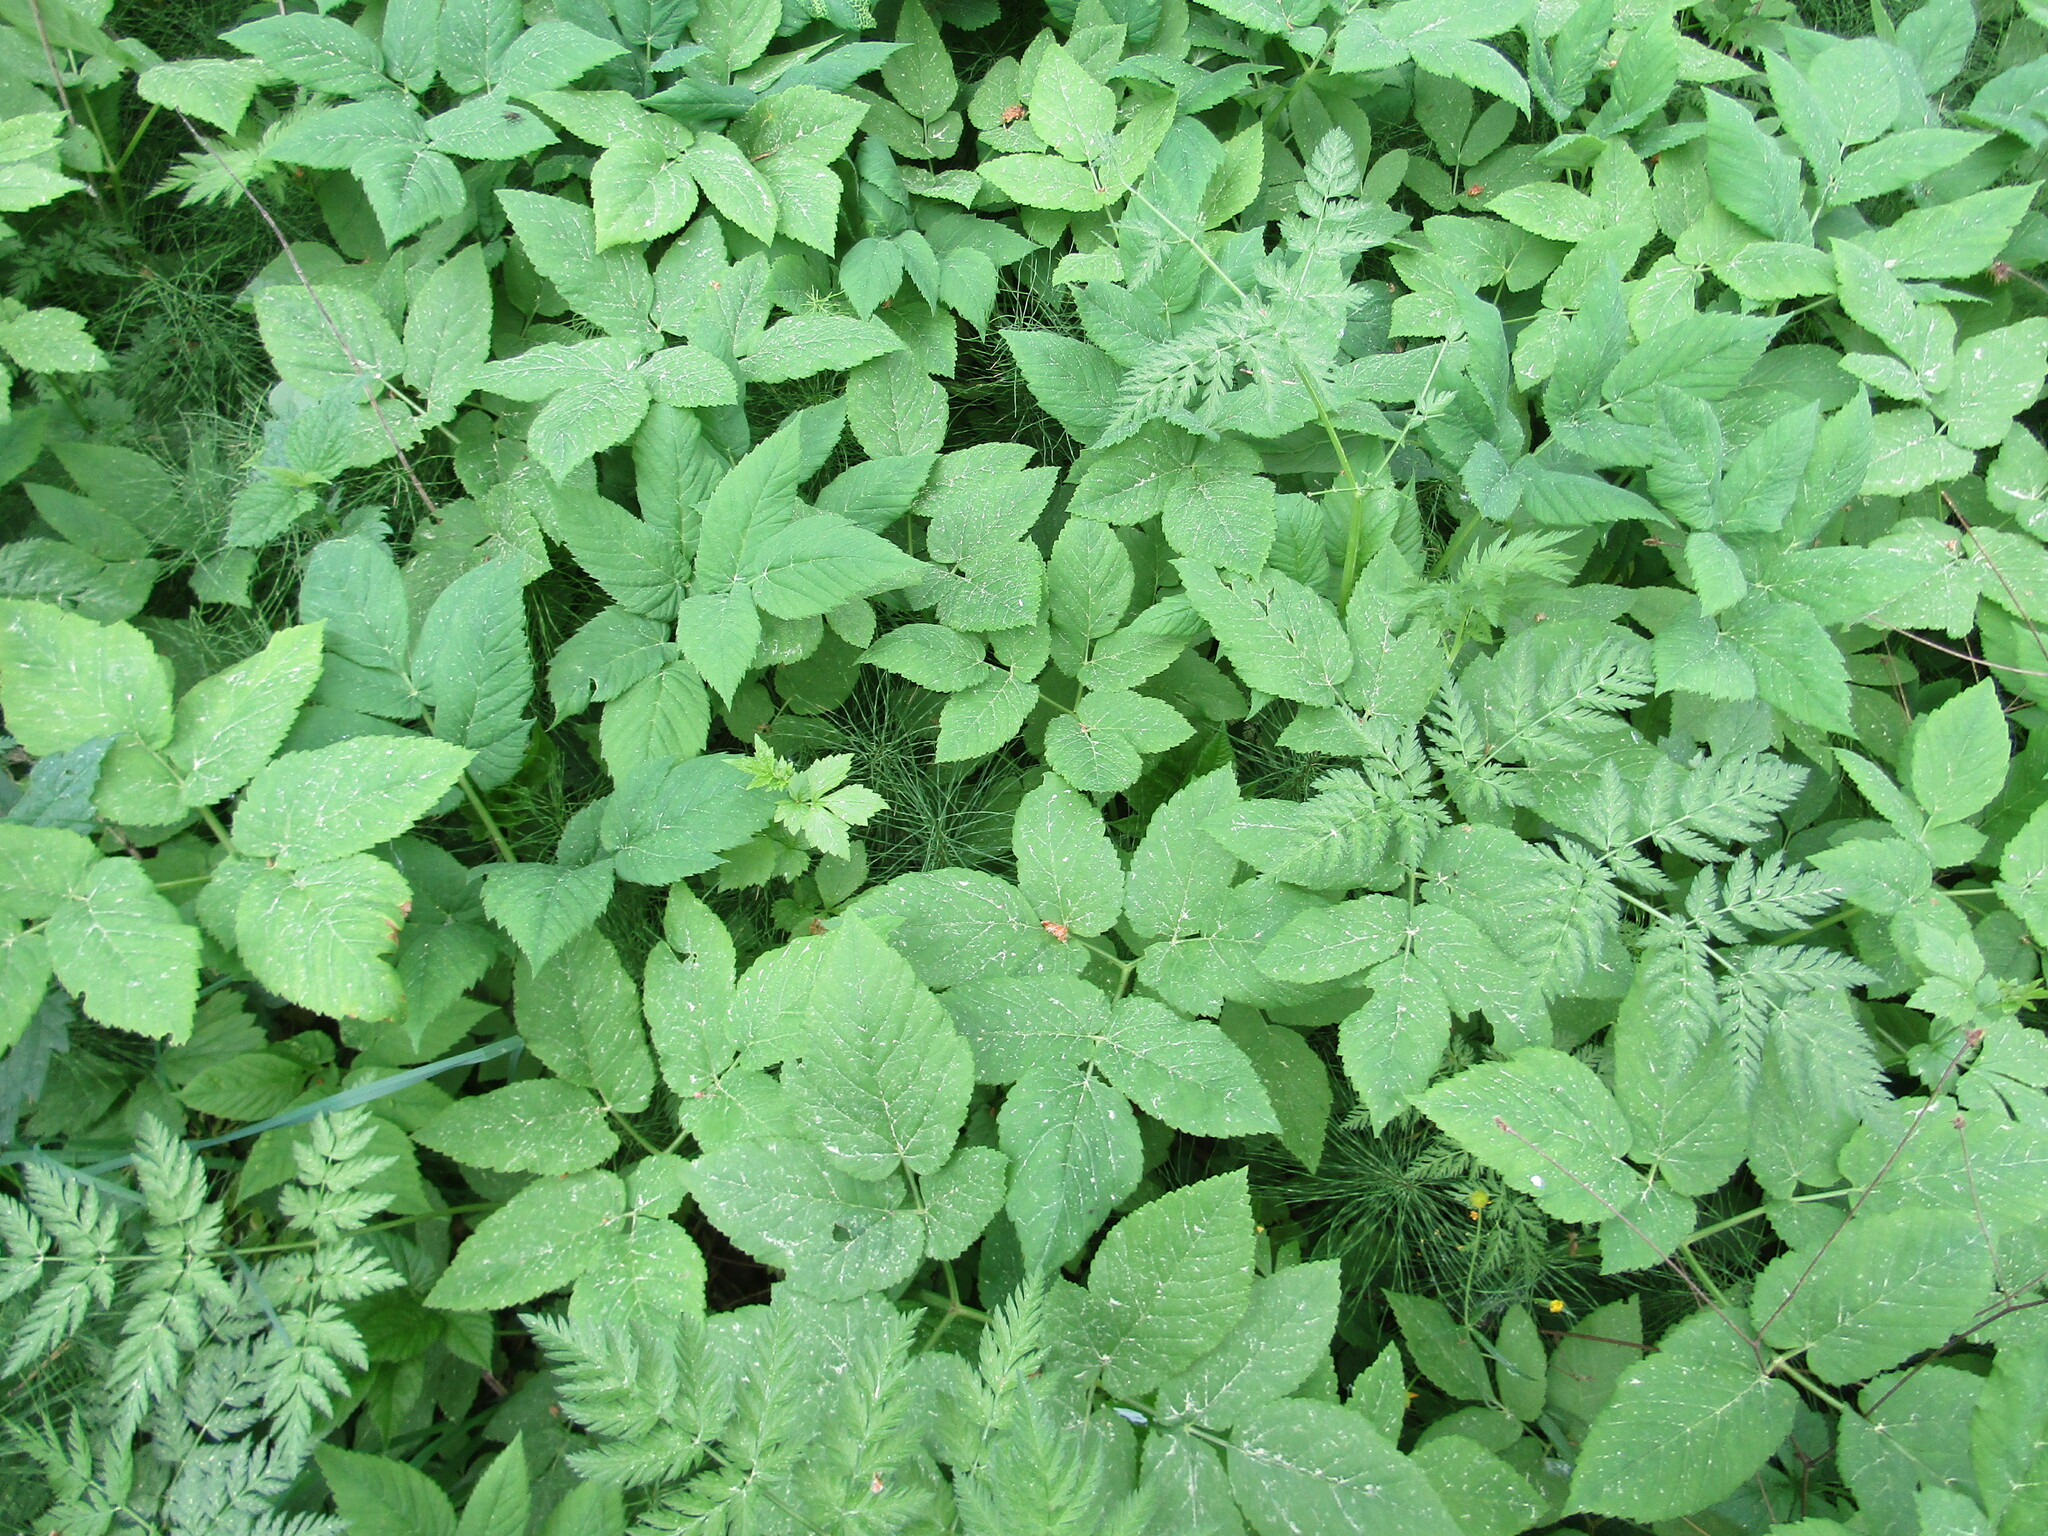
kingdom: Plantae
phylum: Tracheophyta
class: Magnoliopsida
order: Apiales
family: Apiaceae
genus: Aegopodium
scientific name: Aegopodium podagraria
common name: Ground-elder
